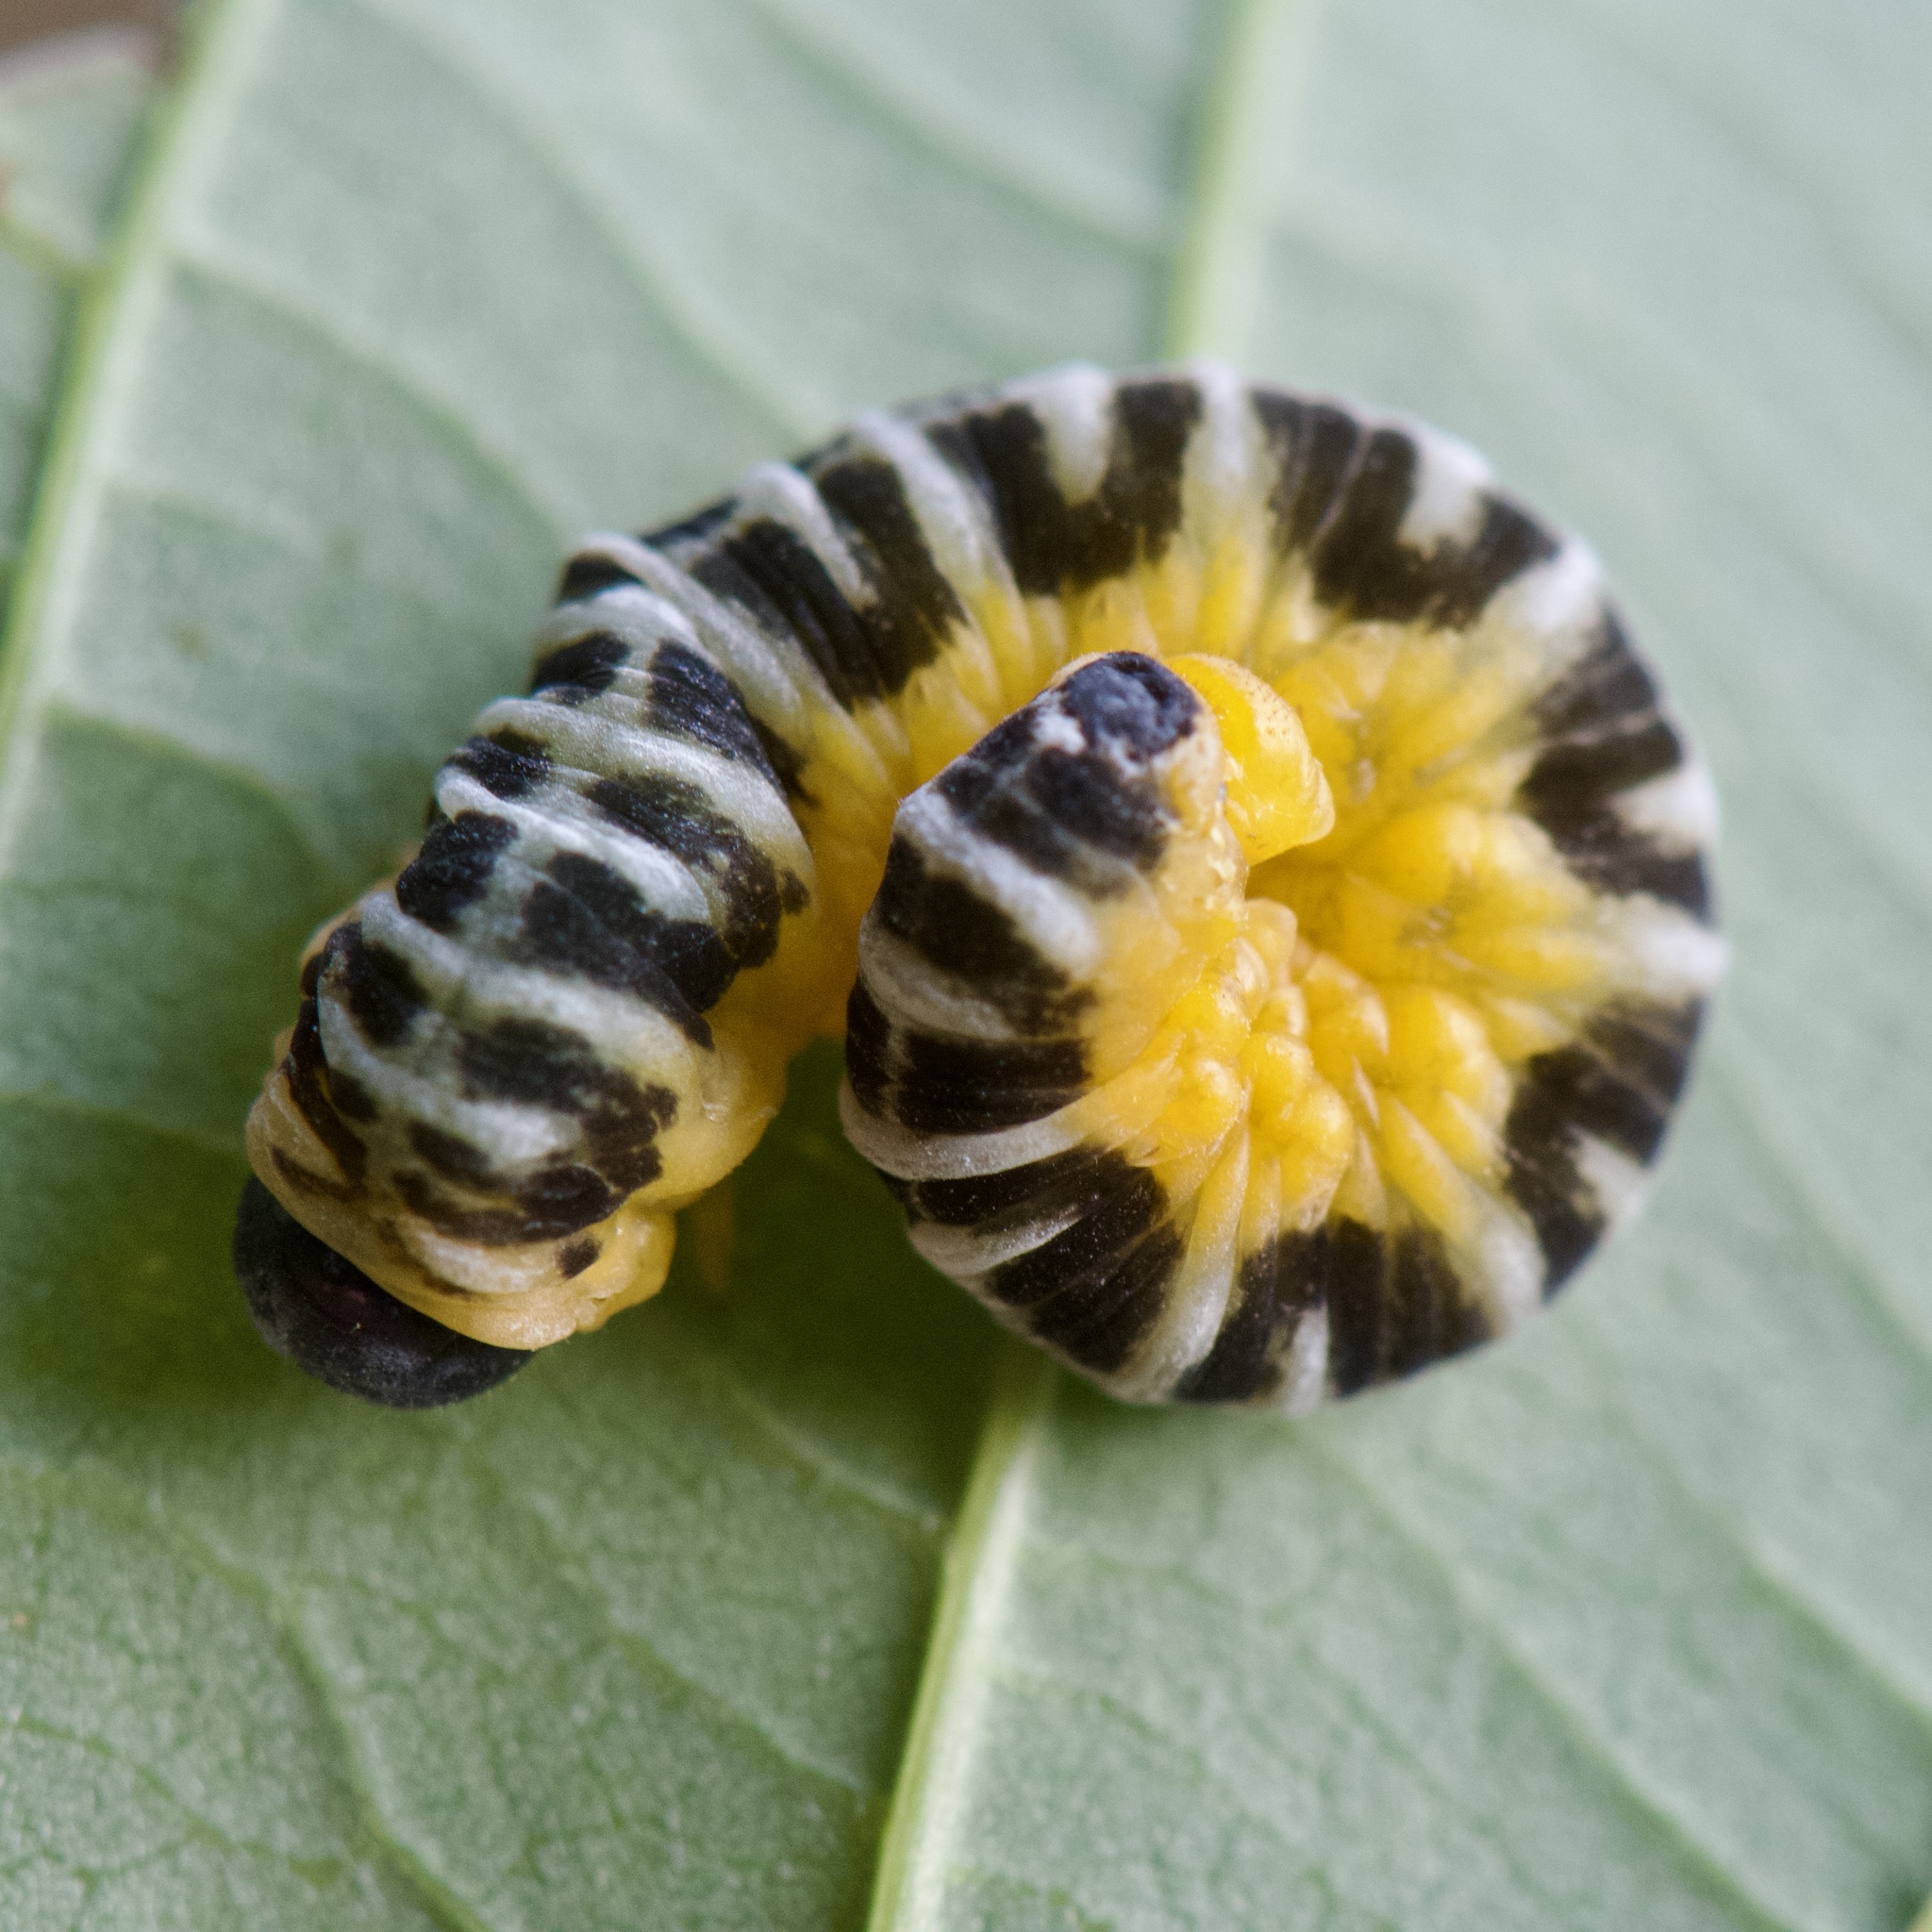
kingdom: Animalia
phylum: Arthropoda
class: Insecta
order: Hymenoptera
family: Tenthredinidae
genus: Macremphytus
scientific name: Macremphytus testaceus
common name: Dogwood sawfly
